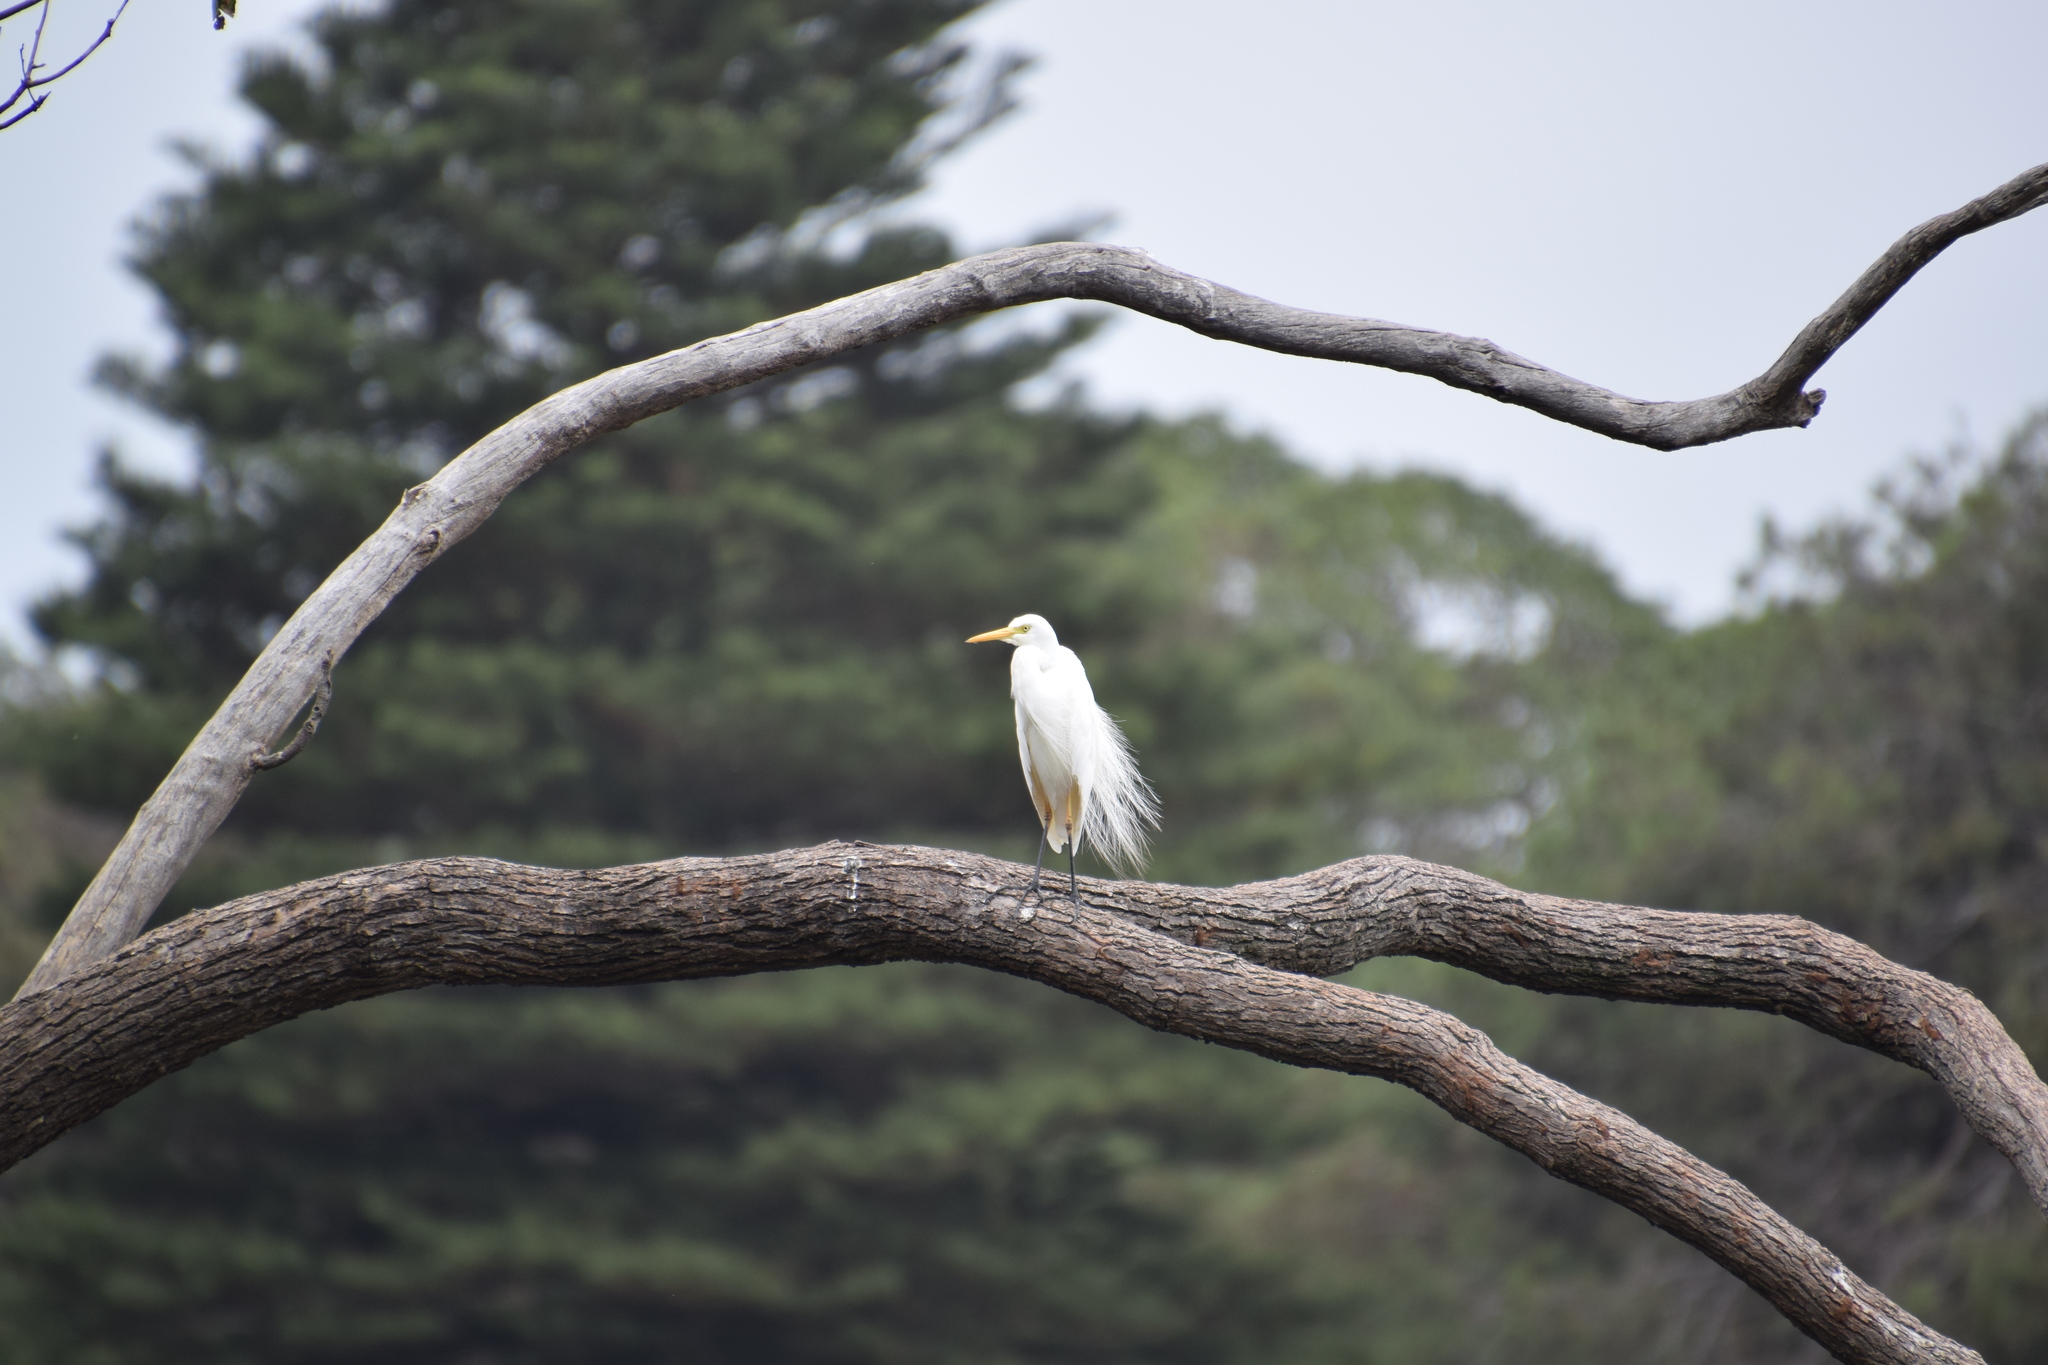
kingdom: Animalia
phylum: Chordata
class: Aves
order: Pelecaniformes
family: Ardeidae
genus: Bubulcus
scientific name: Bubulcus coromandus
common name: Eastern cattle egret
